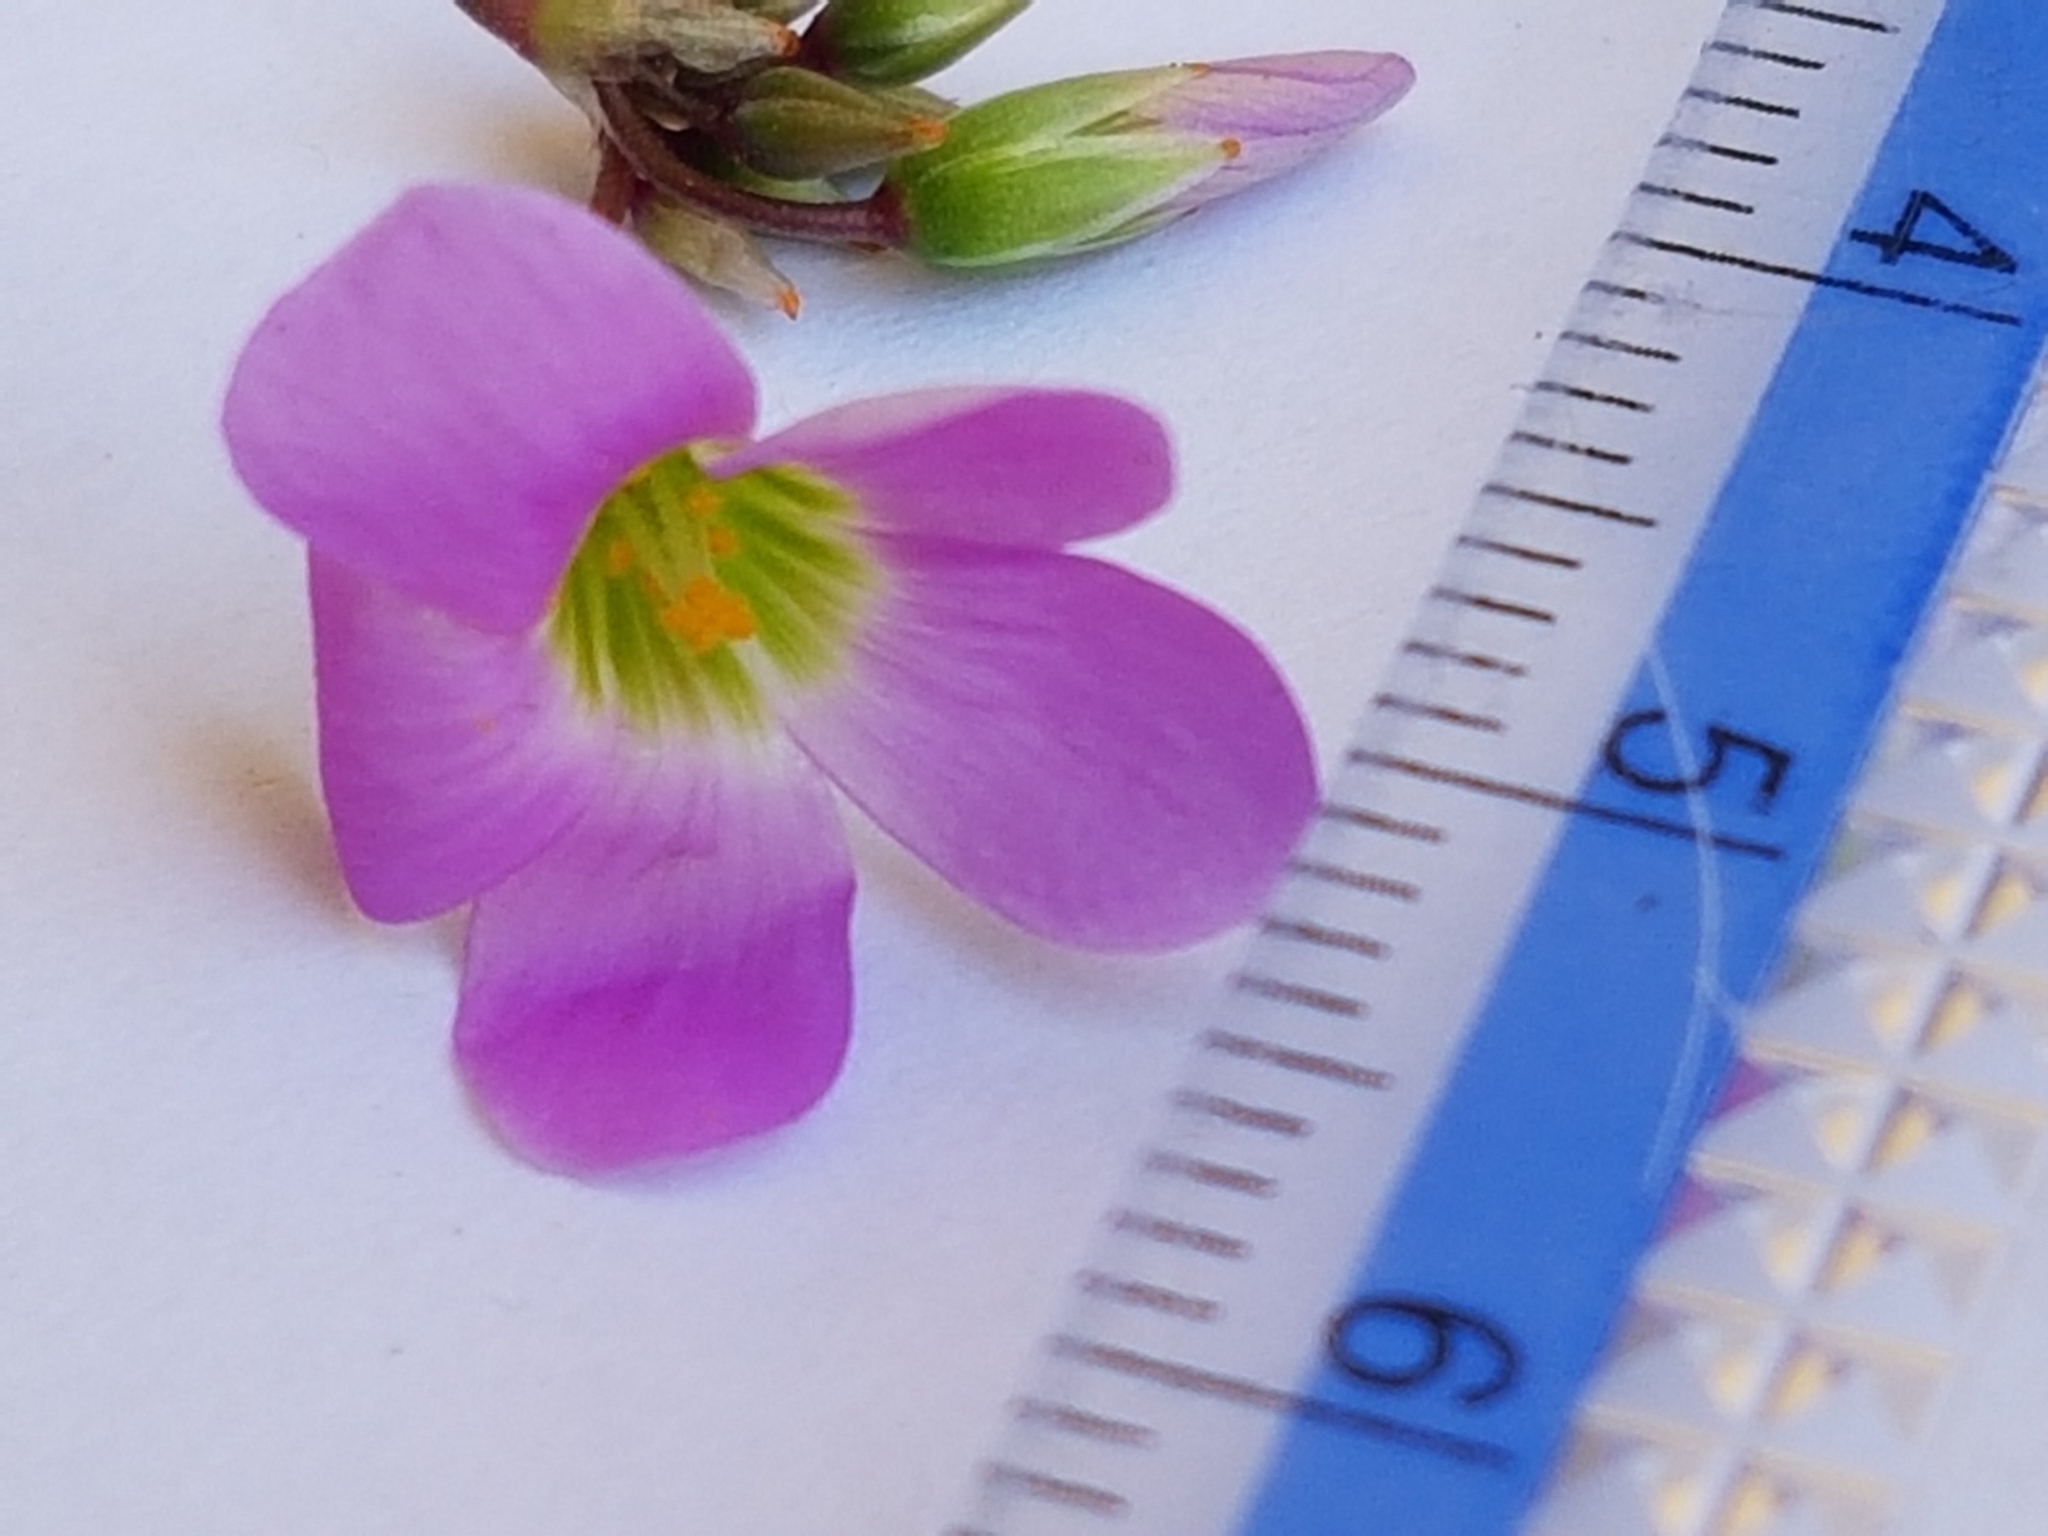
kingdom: Plantae
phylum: Tracheophyta
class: Magnoliopsida
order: Oxalidales
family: Oxalidaceae
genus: Oxalis
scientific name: Oxalis latifolia
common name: Garden pink-sorrel
